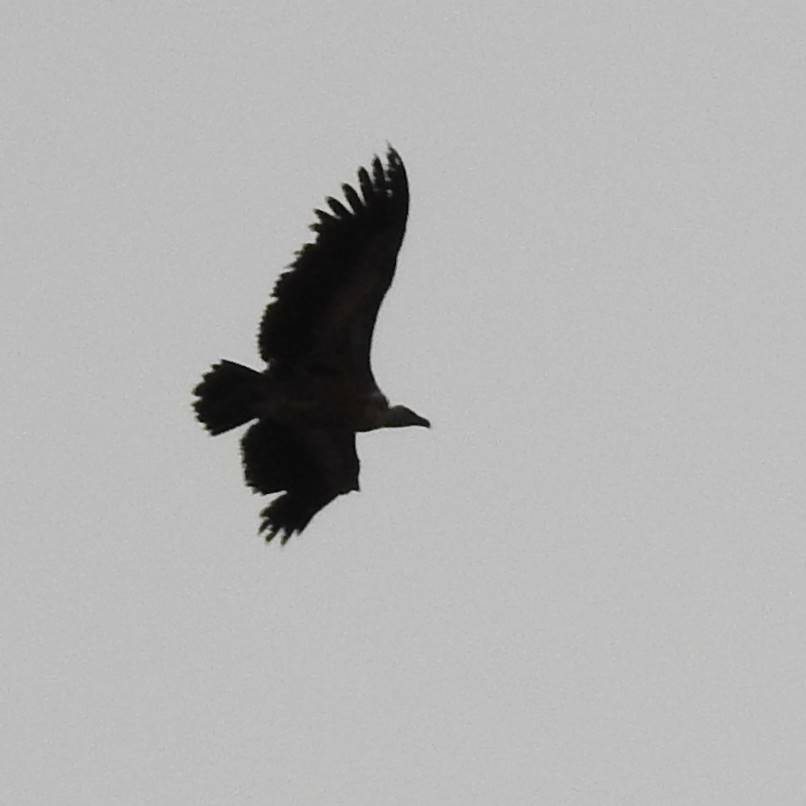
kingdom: Animalia
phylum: Chordata
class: Aves
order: Accipitriformes
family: Accipitridae
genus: Gyps
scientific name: Gyps fulvus
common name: Griffon vulture
